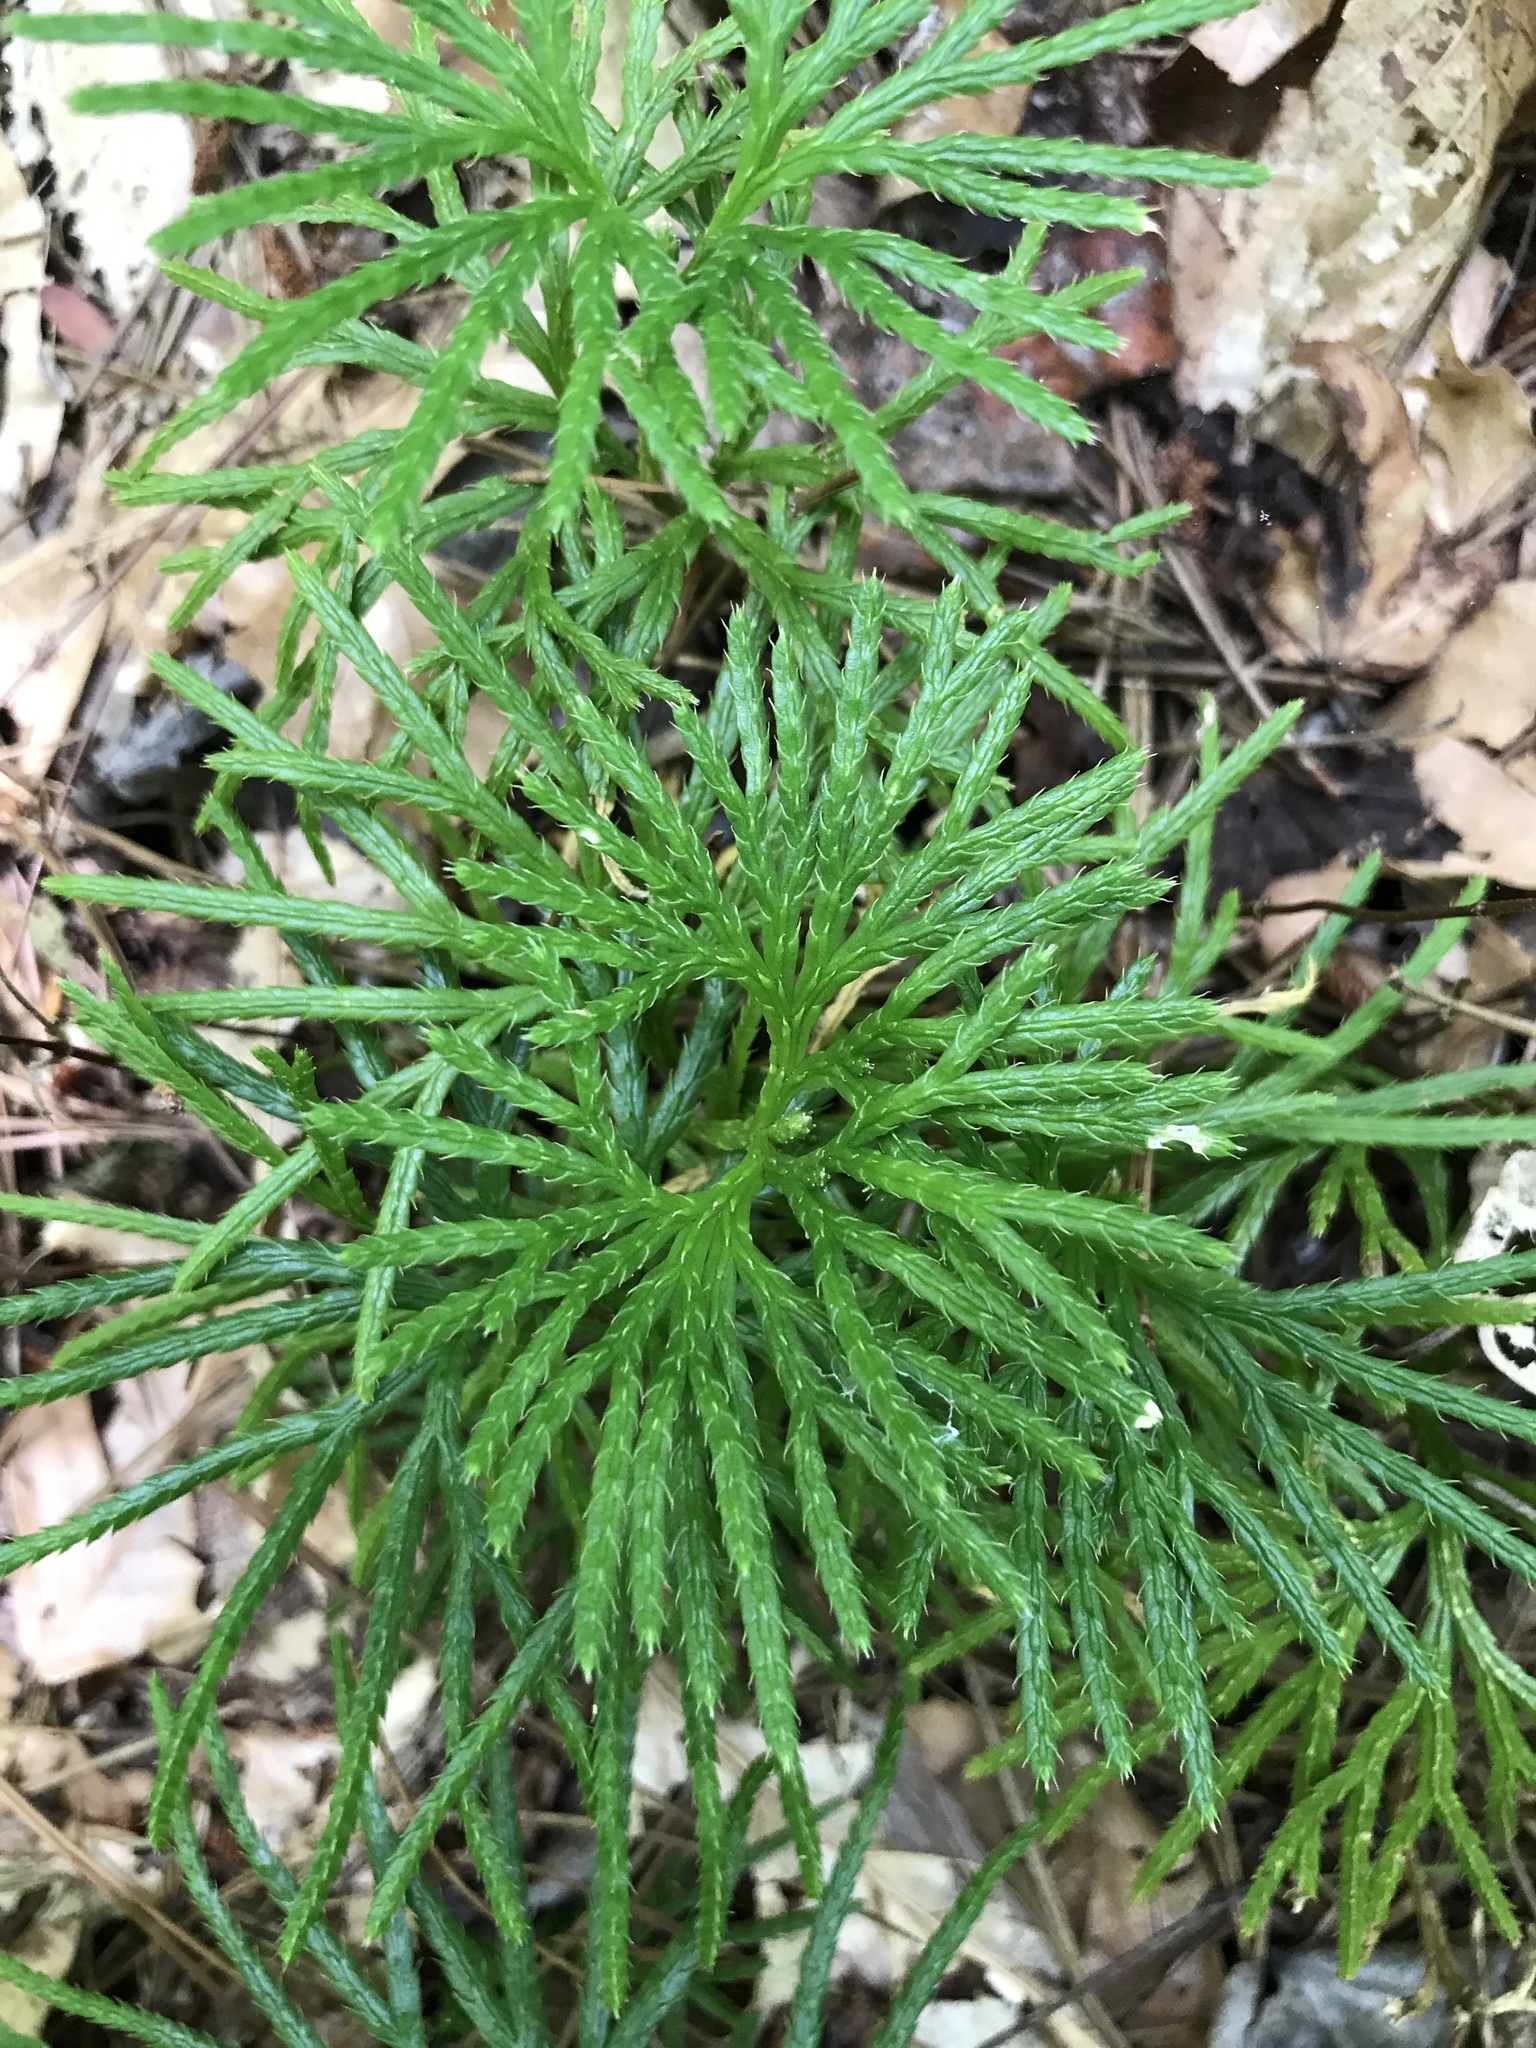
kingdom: Plantae
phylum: Tracheophyta
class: Lycopodiopsida
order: Lycopodiales
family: Lycopodiaceae
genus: Diphasiastrum
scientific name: Diphasiastrum digitatum
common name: Southern running-pine
